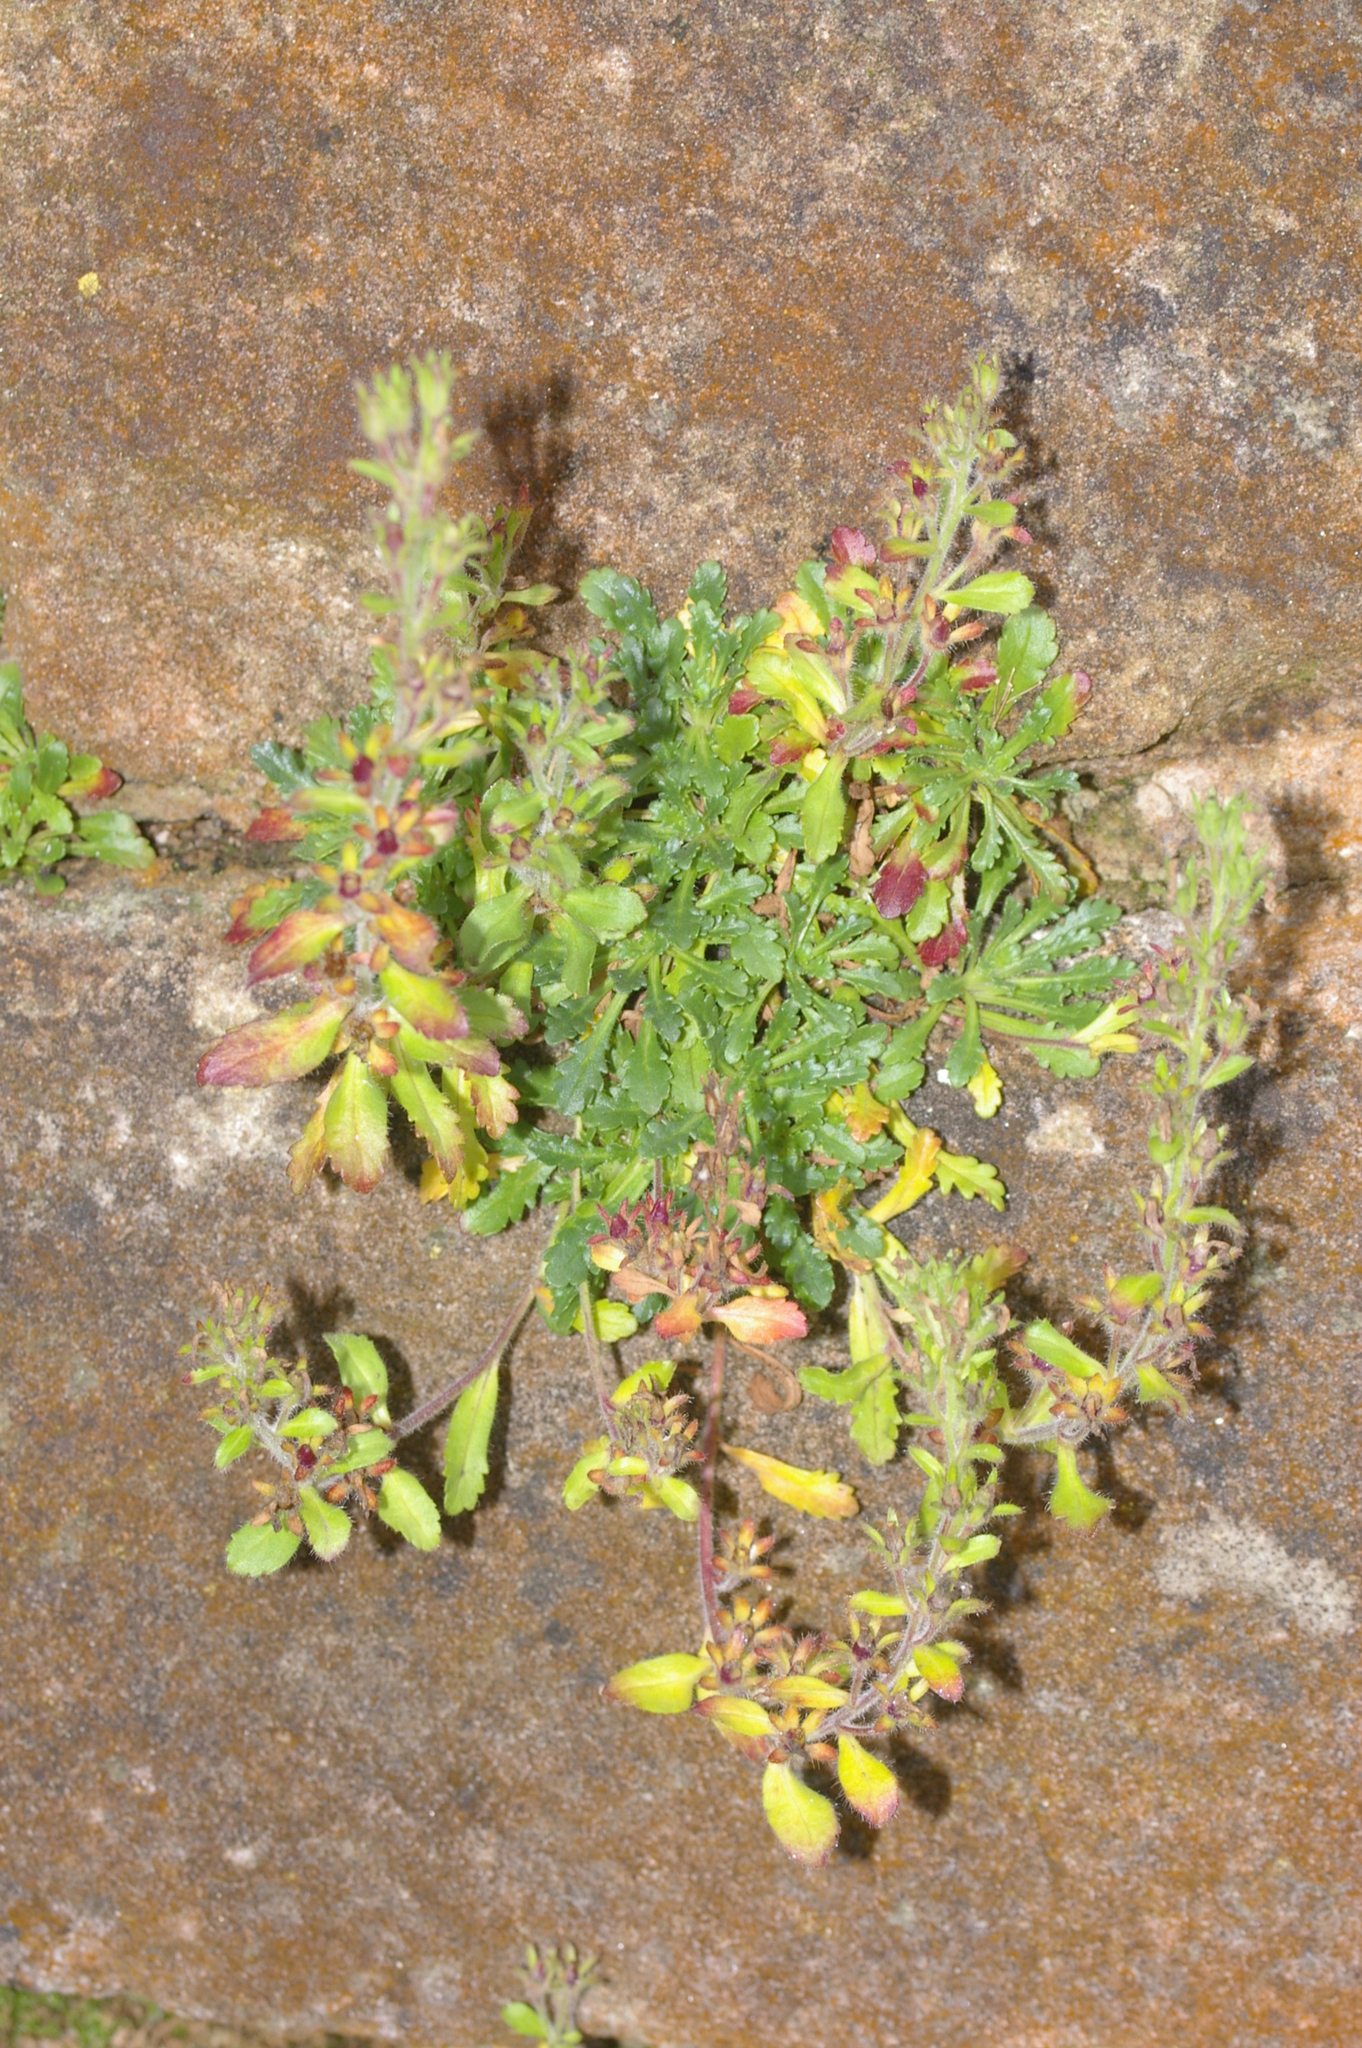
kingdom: Plantae
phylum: Tracheophyta
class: Magnoliopsida
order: Lamiales
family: Plantaginaceae
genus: Erinus
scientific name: Erinus alpinus
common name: Fairy foxglove
